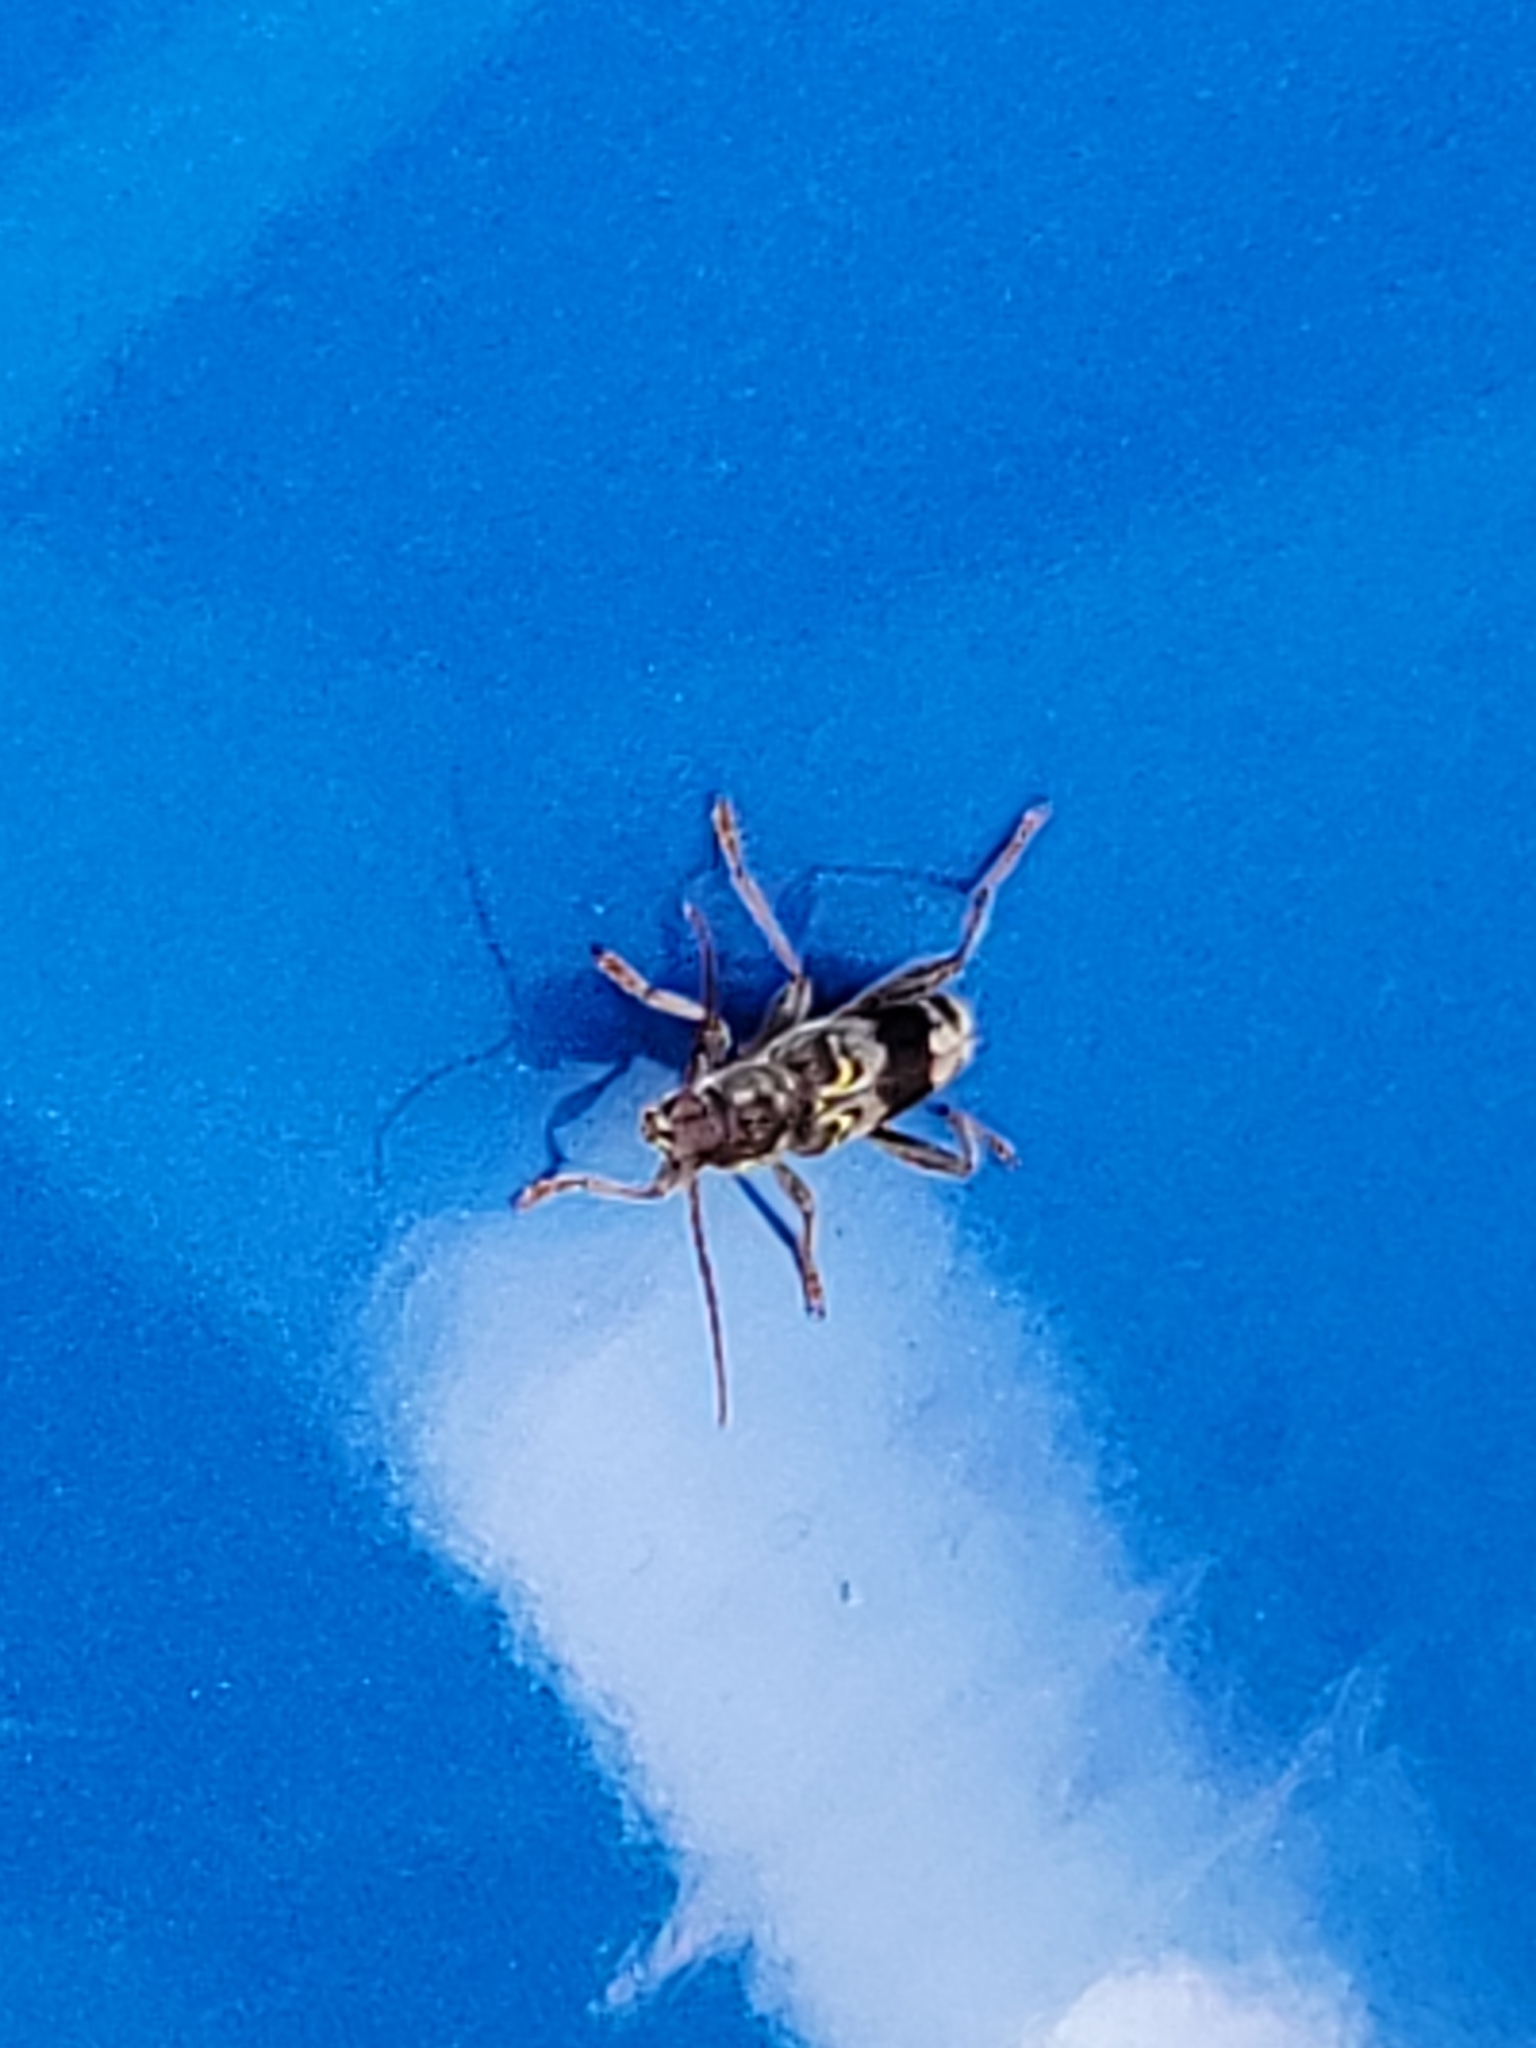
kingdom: Animalia
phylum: Arthropoda
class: Insecta
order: Coleoptera
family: Cerambycidae
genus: Xylotrechus
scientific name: Xylotrechus colonus
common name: Long-horned beetle
